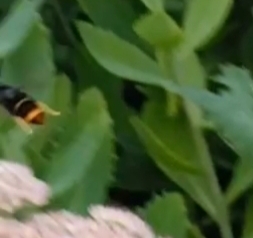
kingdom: Animalia
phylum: Arthropoda
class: Insecta
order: Hymenoptera
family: Vespidae
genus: Vespa
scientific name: Vespa velutina
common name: Asian hornet
